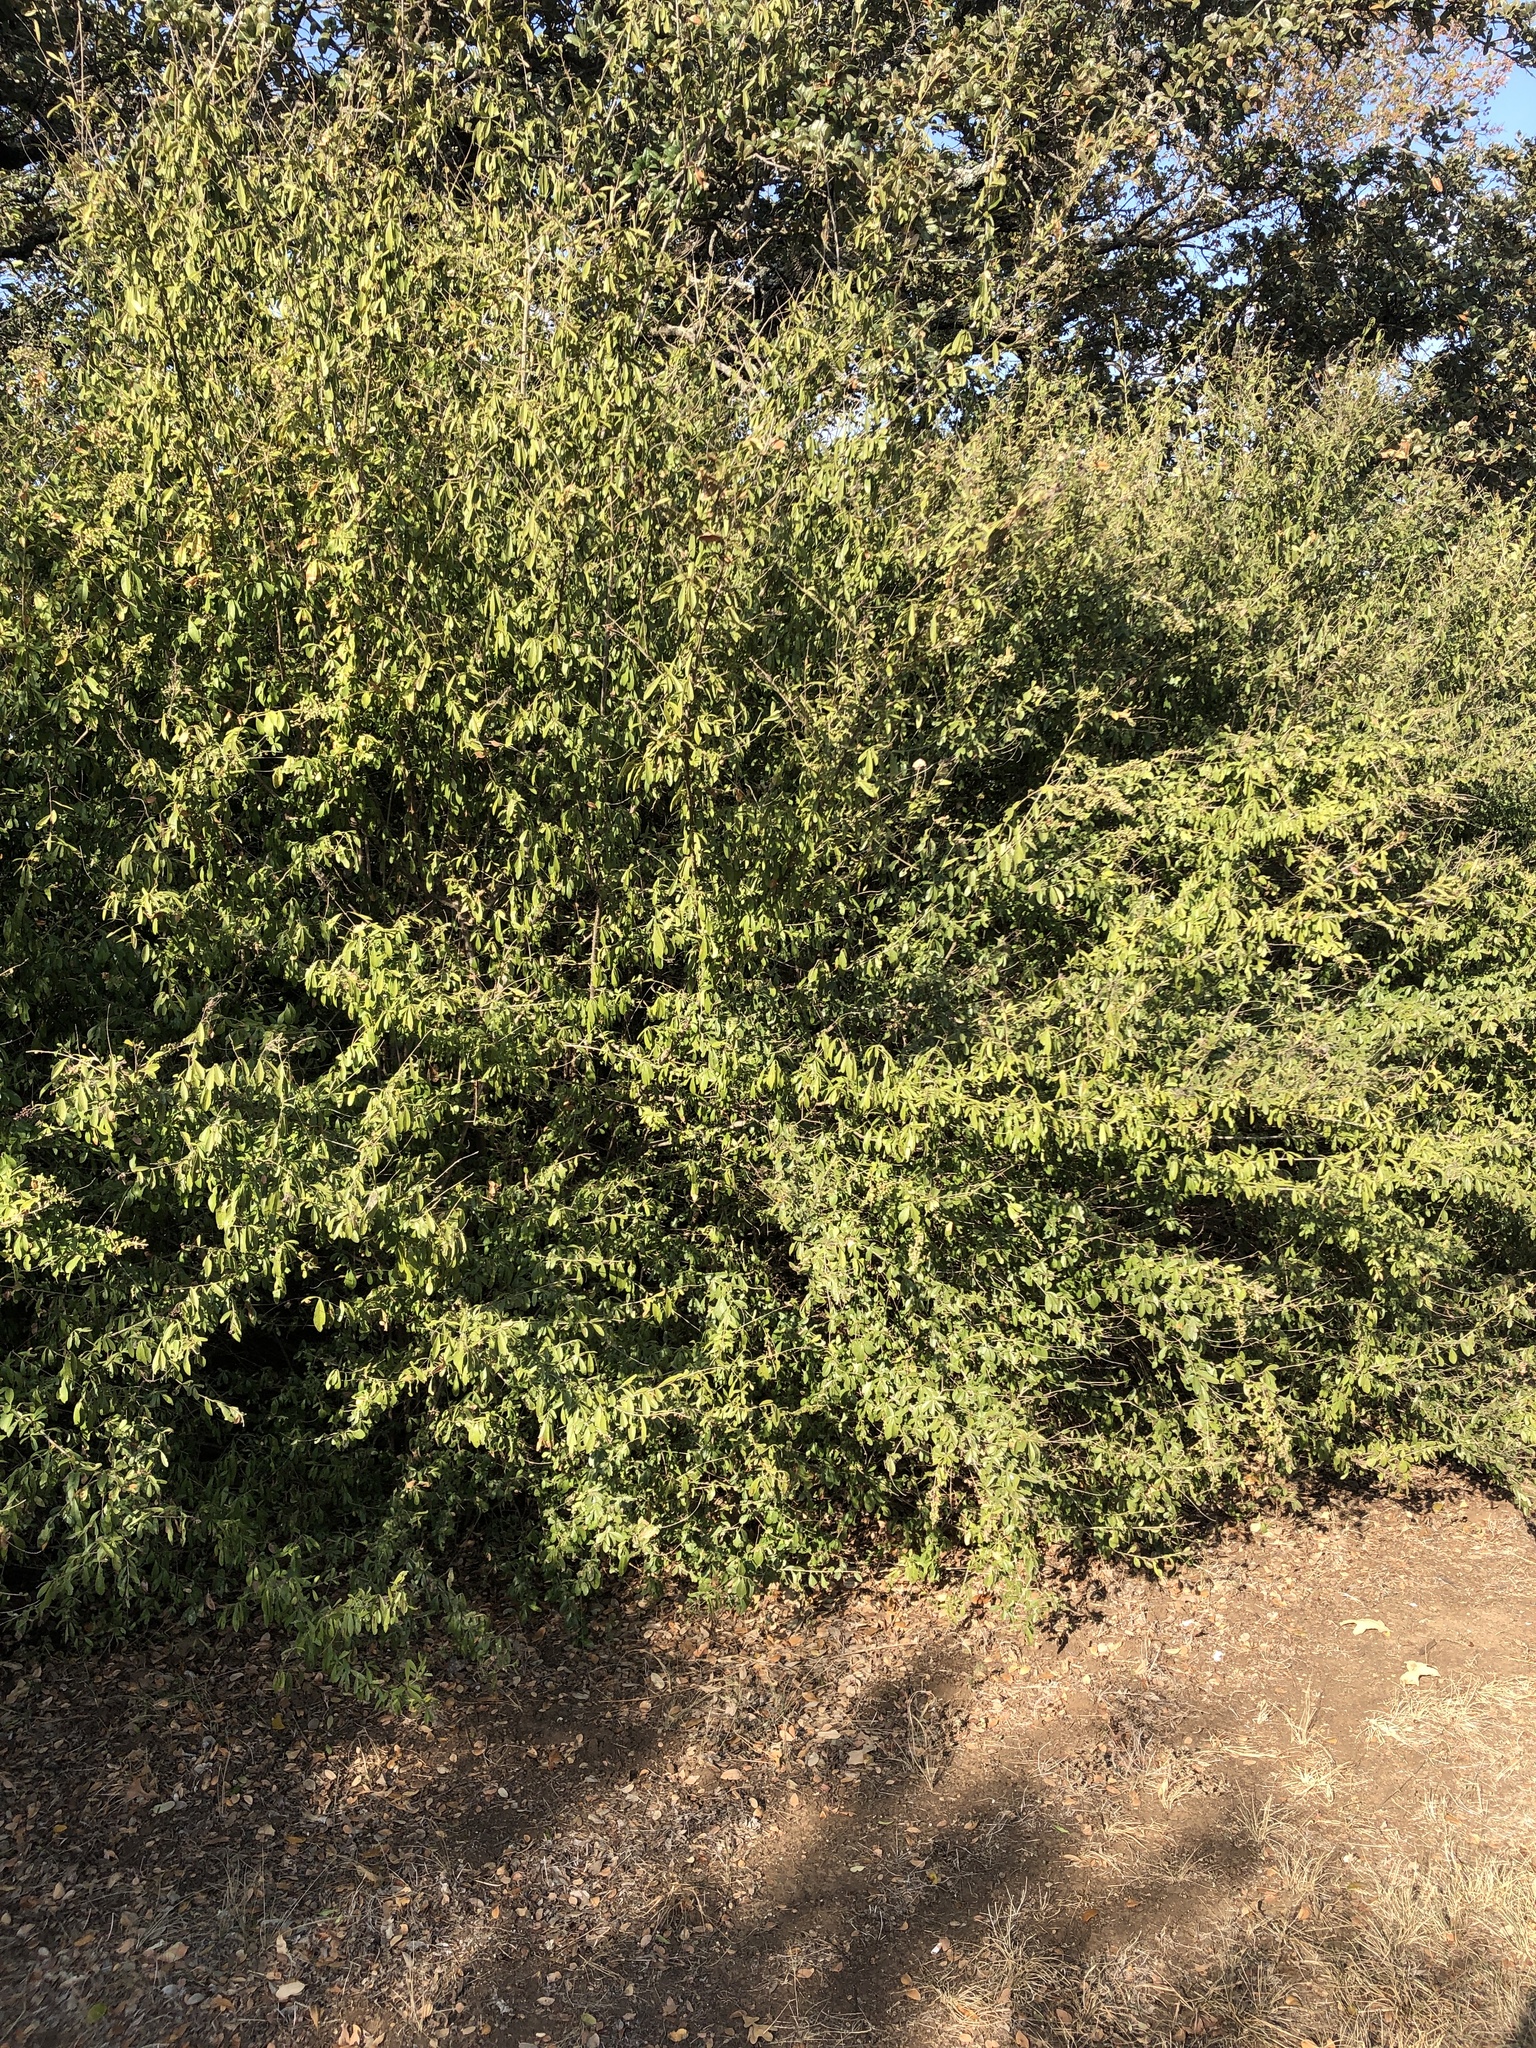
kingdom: Plantae
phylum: Tracheophyta
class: Magnoliopsida
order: Lamiales
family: Oleaceae
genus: Ligustrum
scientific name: Ligustrum quihoui
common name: Waxyleaf privet
